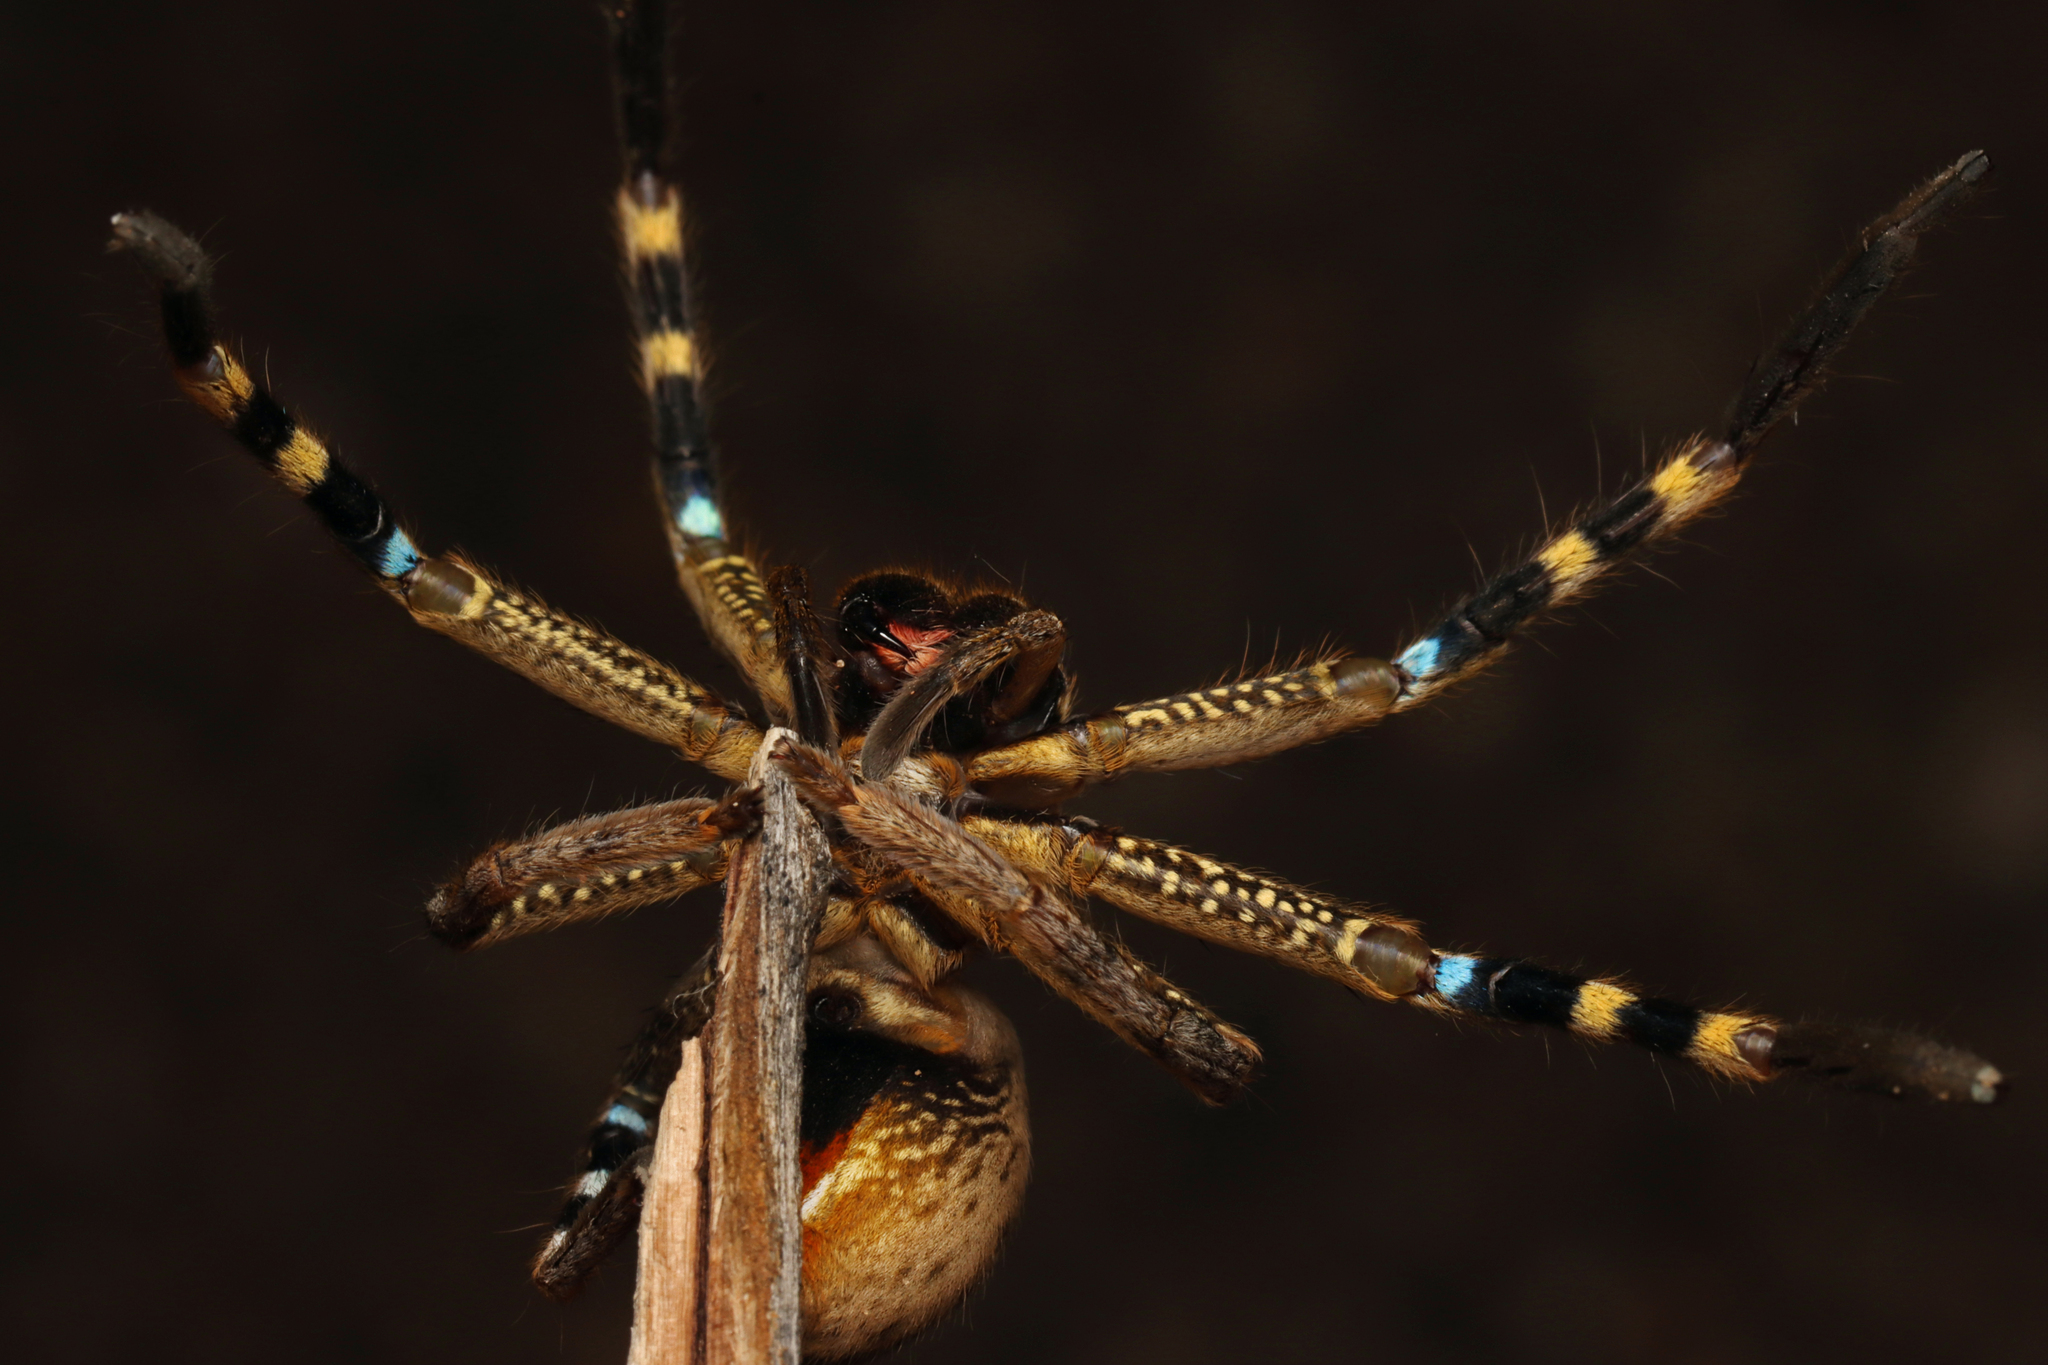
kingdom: Animalia
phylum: Arthropoda
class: Arachnida
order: Araneae
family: Sparassidae
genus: Neosparassus
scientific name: Neosparassus calligaster
